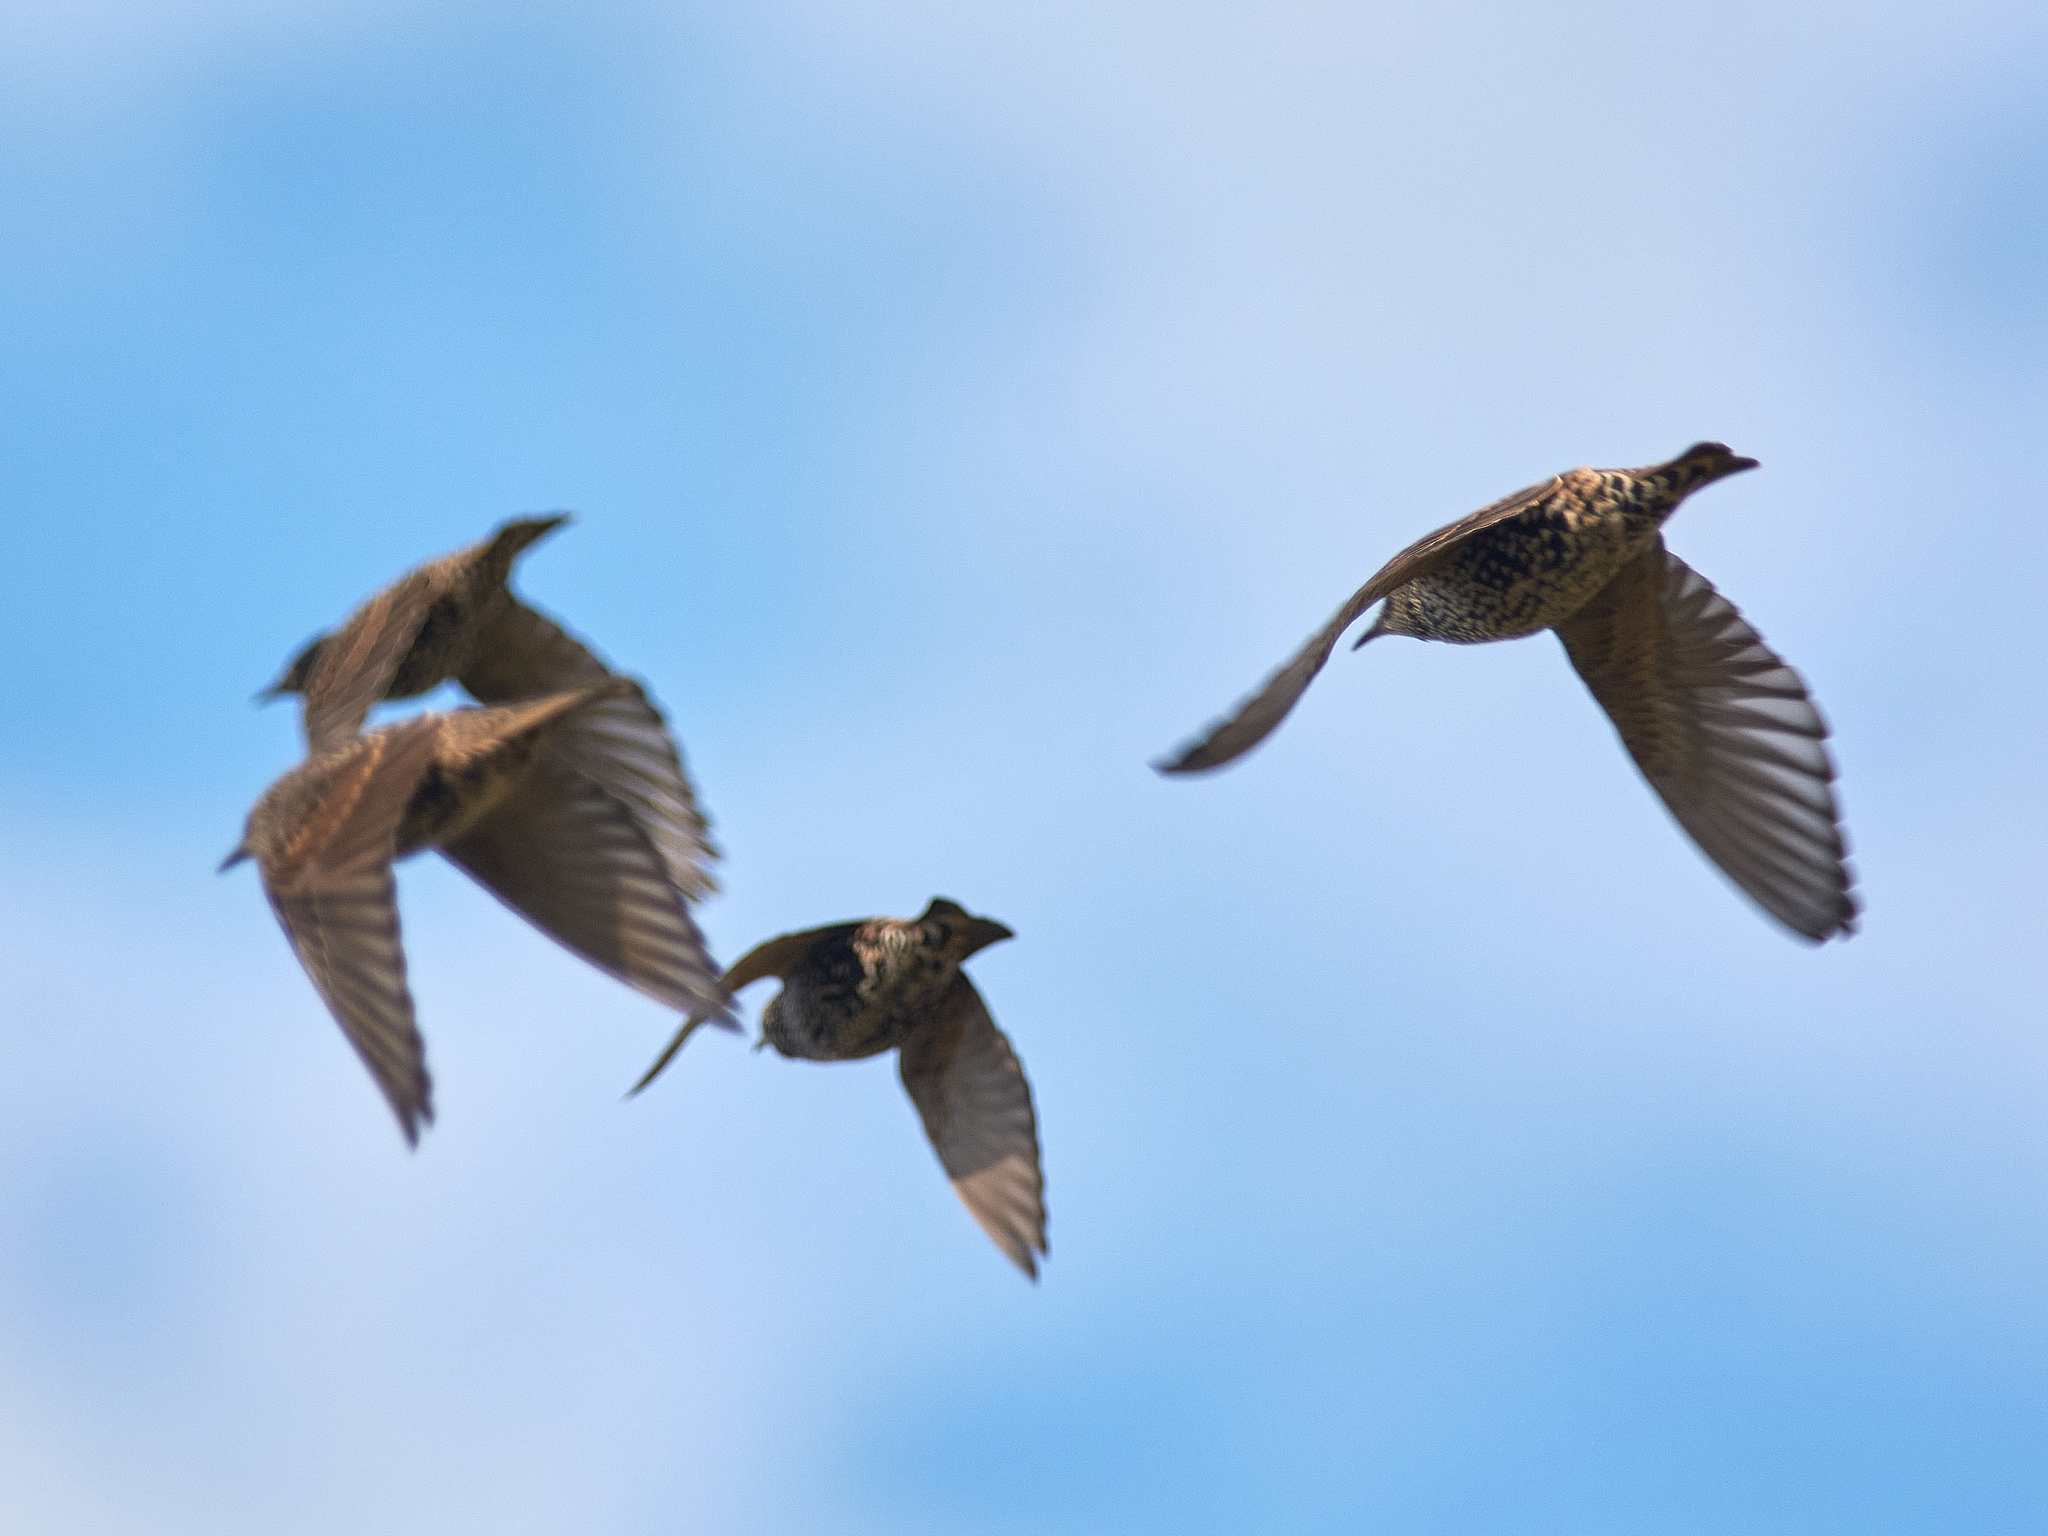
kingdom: Animalia
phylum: Chordata
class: Aves
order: Passeriformes
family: Sturnidae
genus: Sturnus
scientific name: Sturnus vulgaris
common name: Common starling
